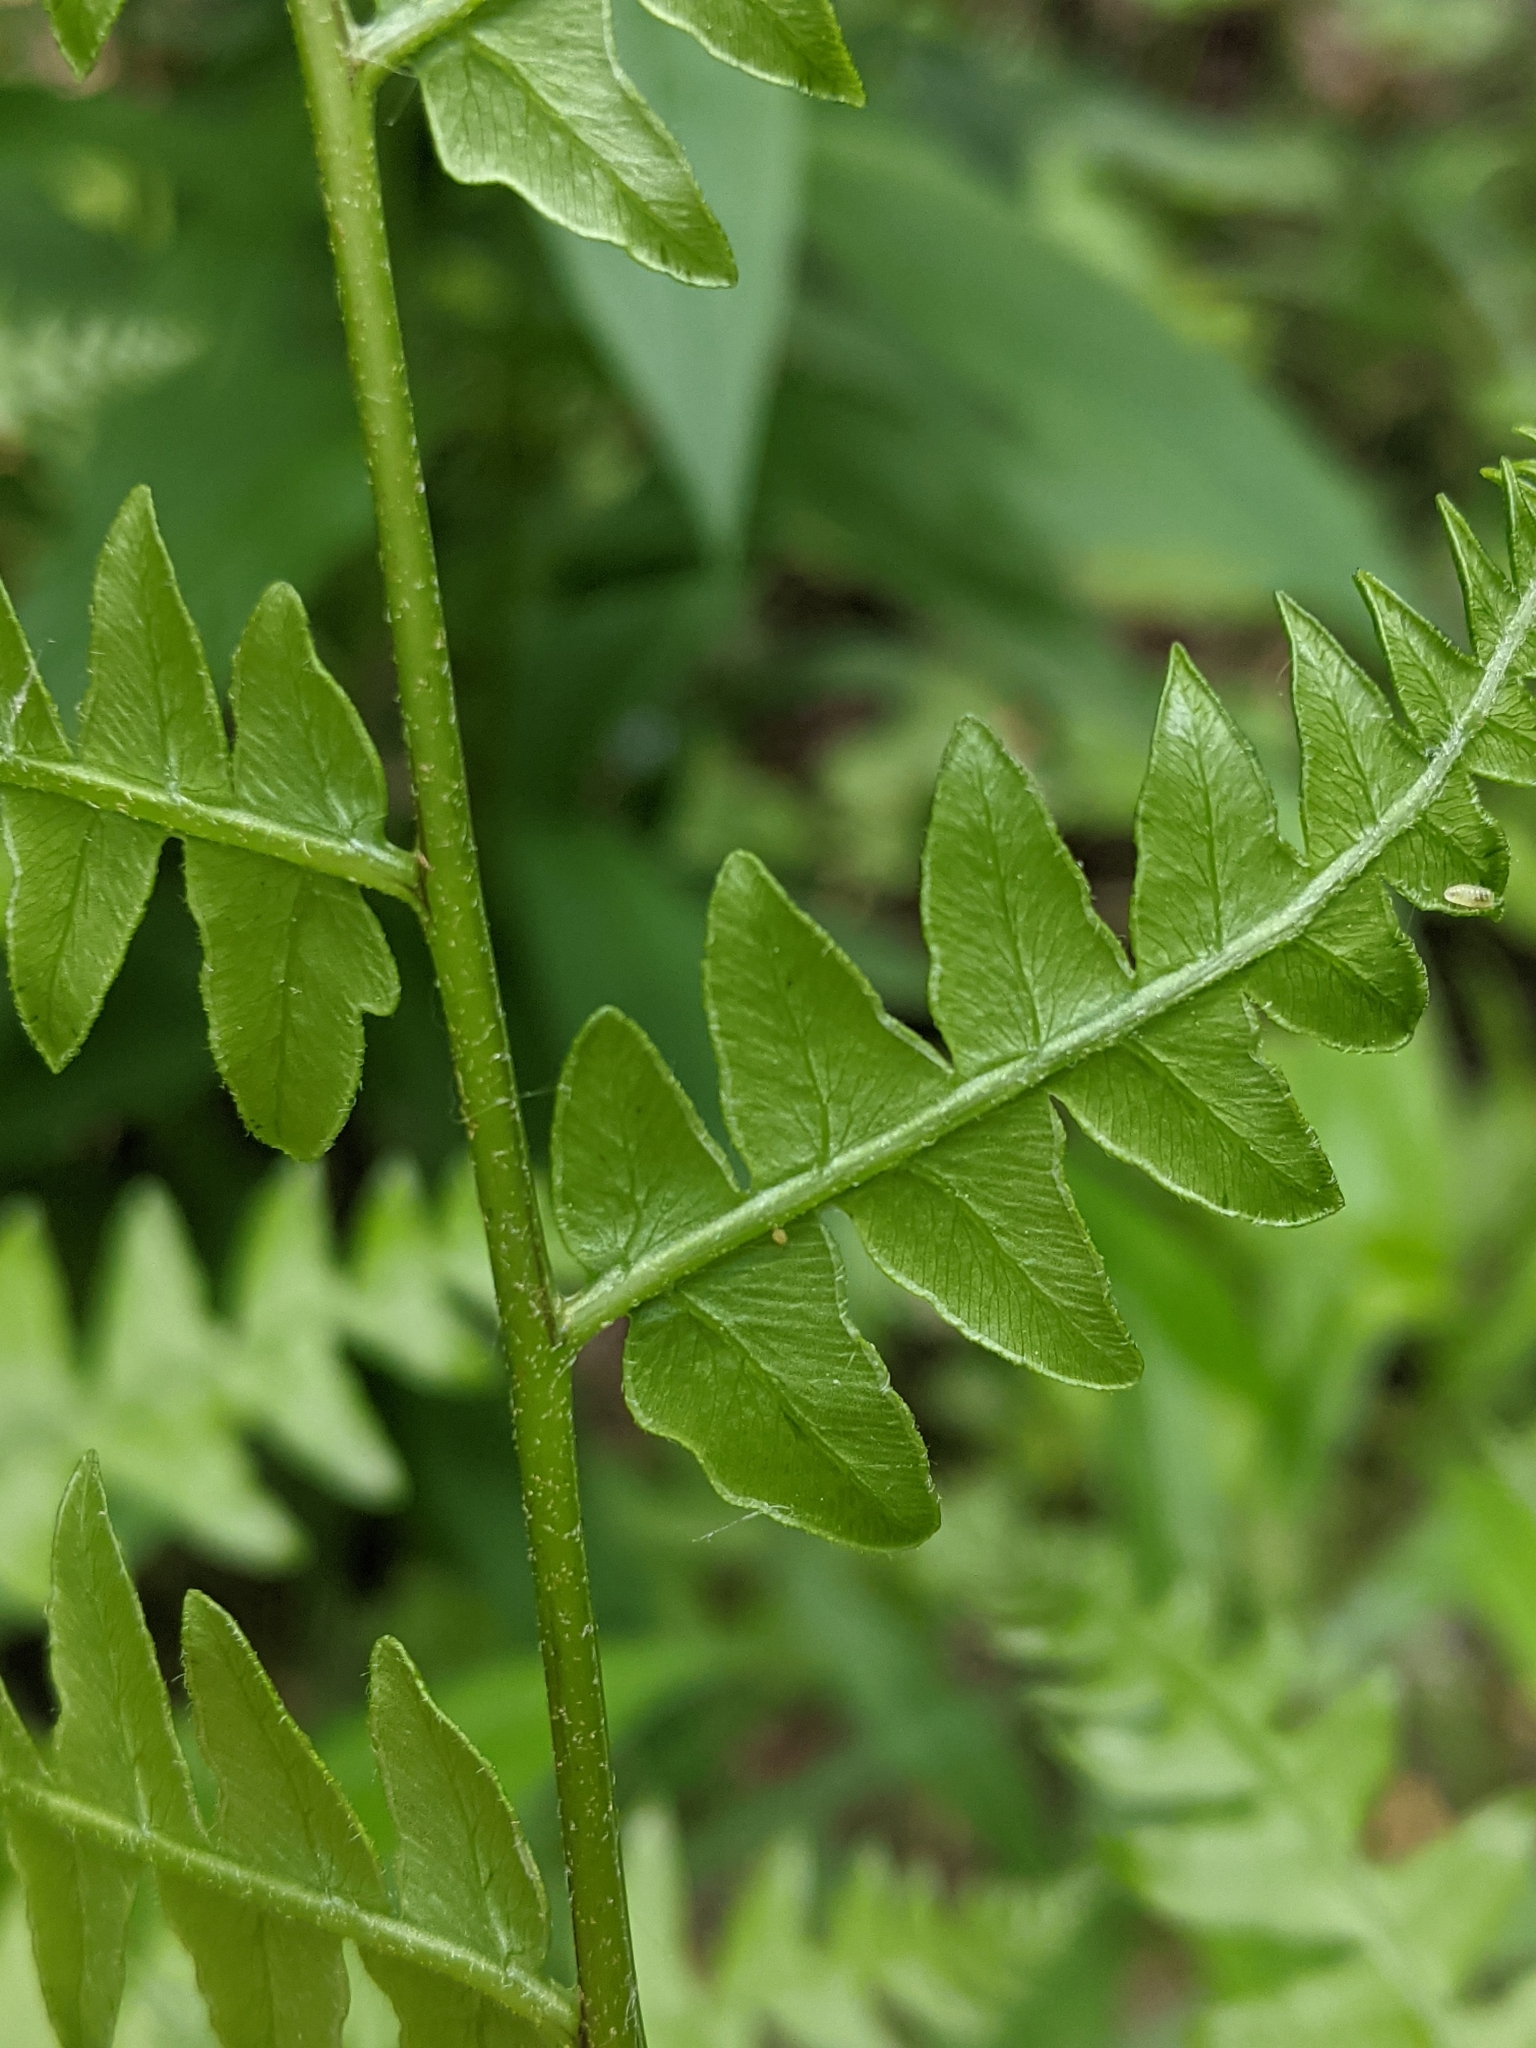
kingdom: Plantae
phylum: Tracheophyta
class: Polypodiopsida
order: Polypodiales
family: Dennstaedtiaceae
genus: Pteridium
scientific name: Pteridium aquilinum
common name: Bracken
